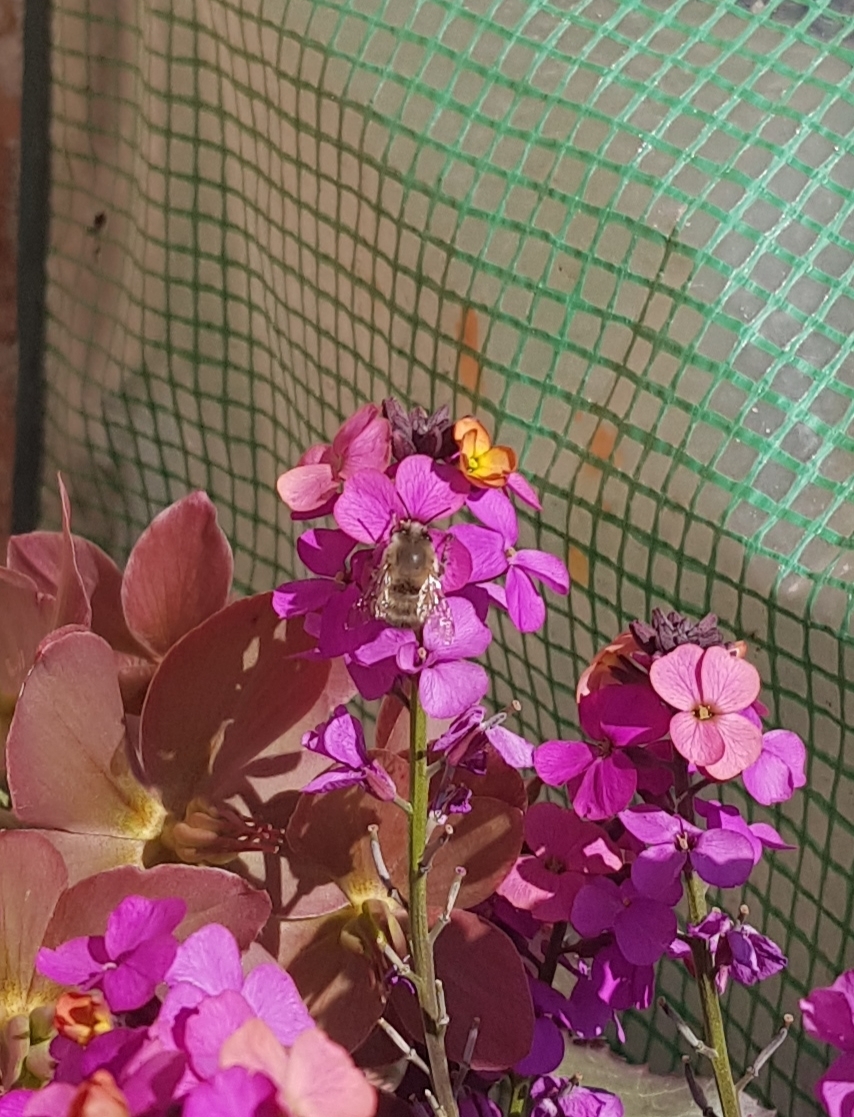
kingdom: Animalia
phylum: Arthropoda
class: Insecta
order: Hymenoptera
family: Apidae
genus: Anthophora
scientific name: Anthophora plumipes
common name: Hairy-footed flower bee
